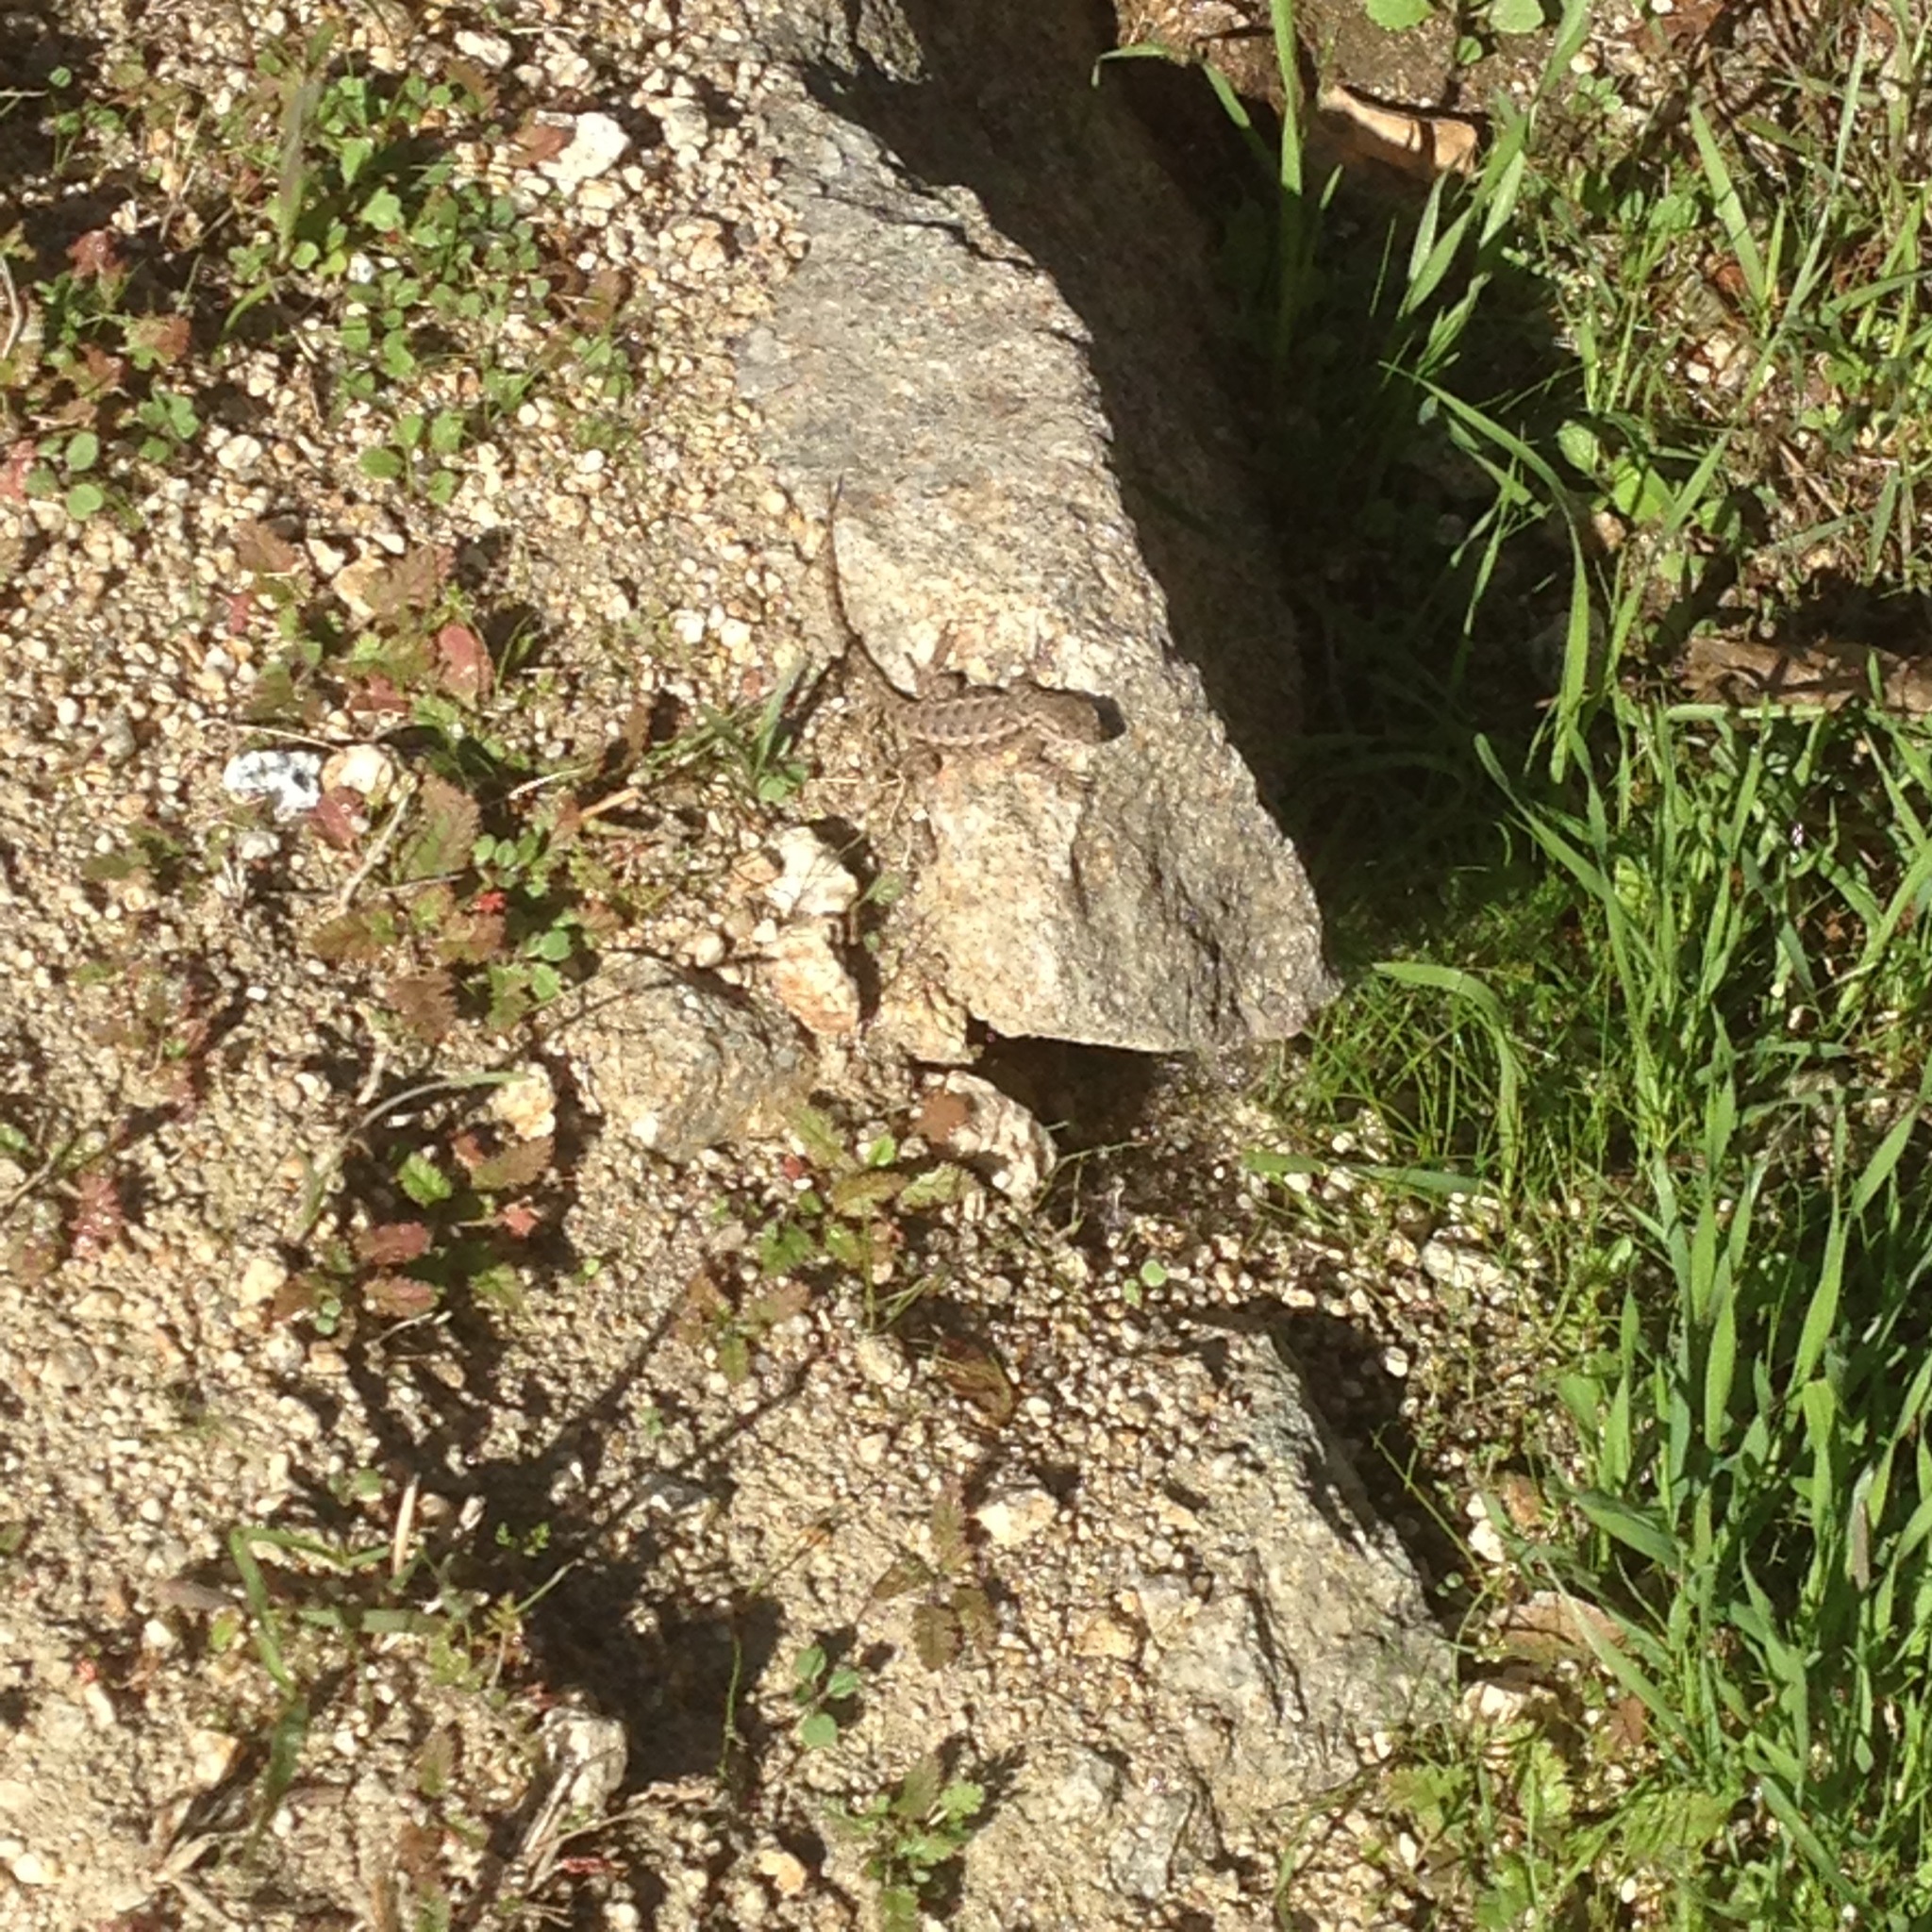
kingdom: Animalia
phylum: Chordata
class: Squamata
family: Phrynosomatidae
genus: Sceloporus
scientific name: Sceloporus occidentalis
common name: Western fence lizard
